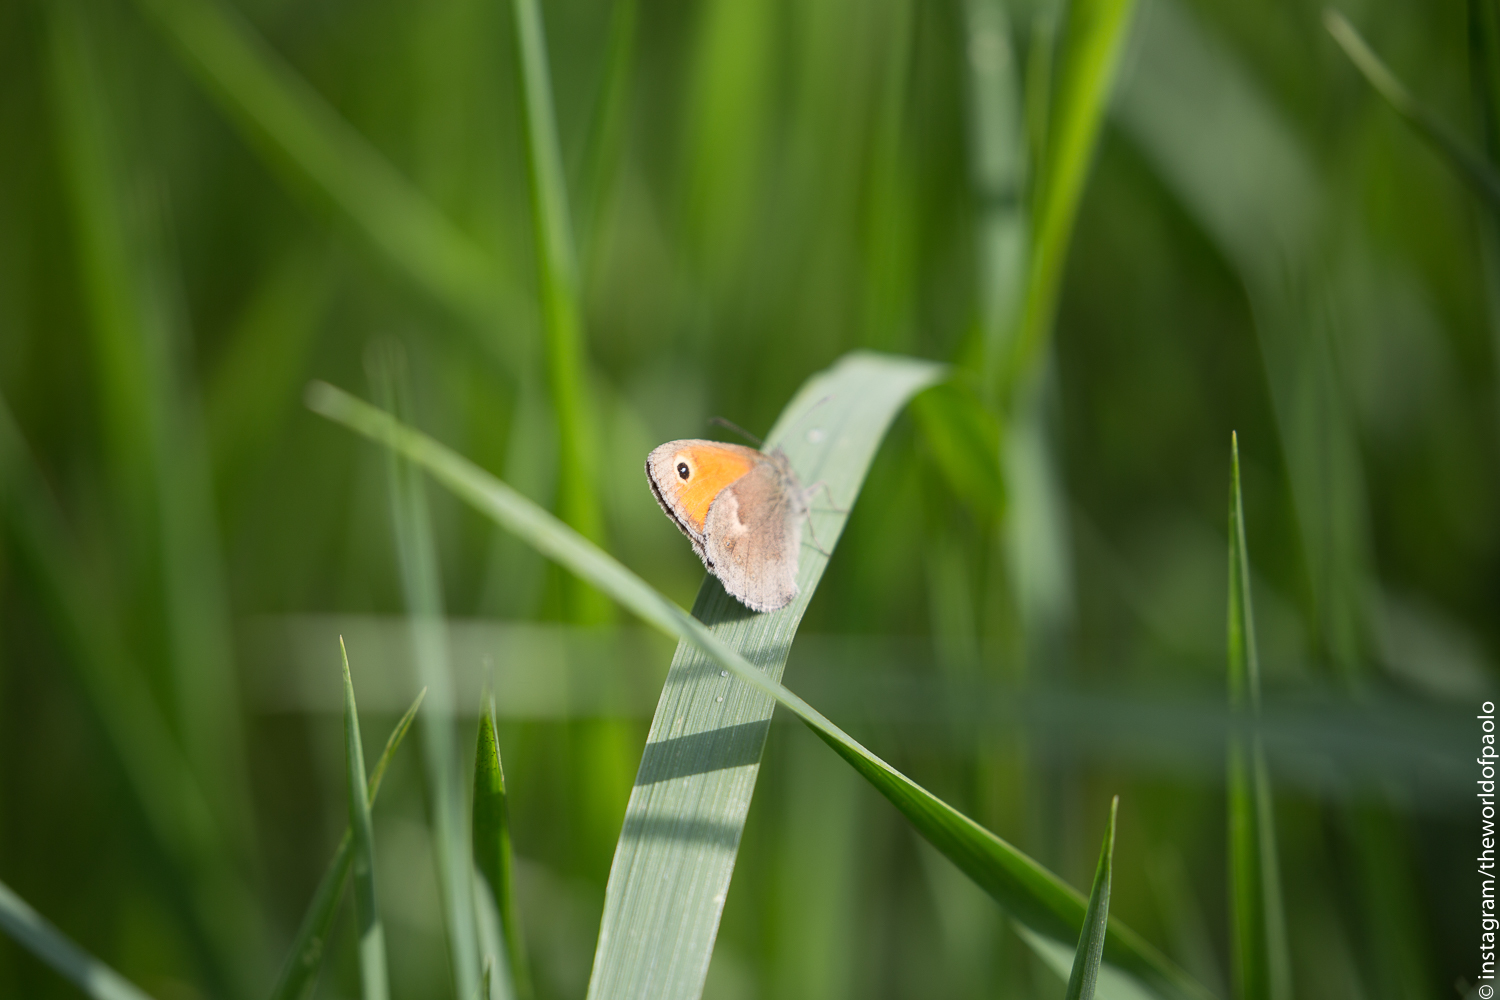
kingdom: Animalia
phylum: Arthropoda
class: Insecta
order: Lepidoptera
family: Nymphalidae
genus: Coenonympha
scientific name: Coenonympha pamphilus
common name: Small heath
